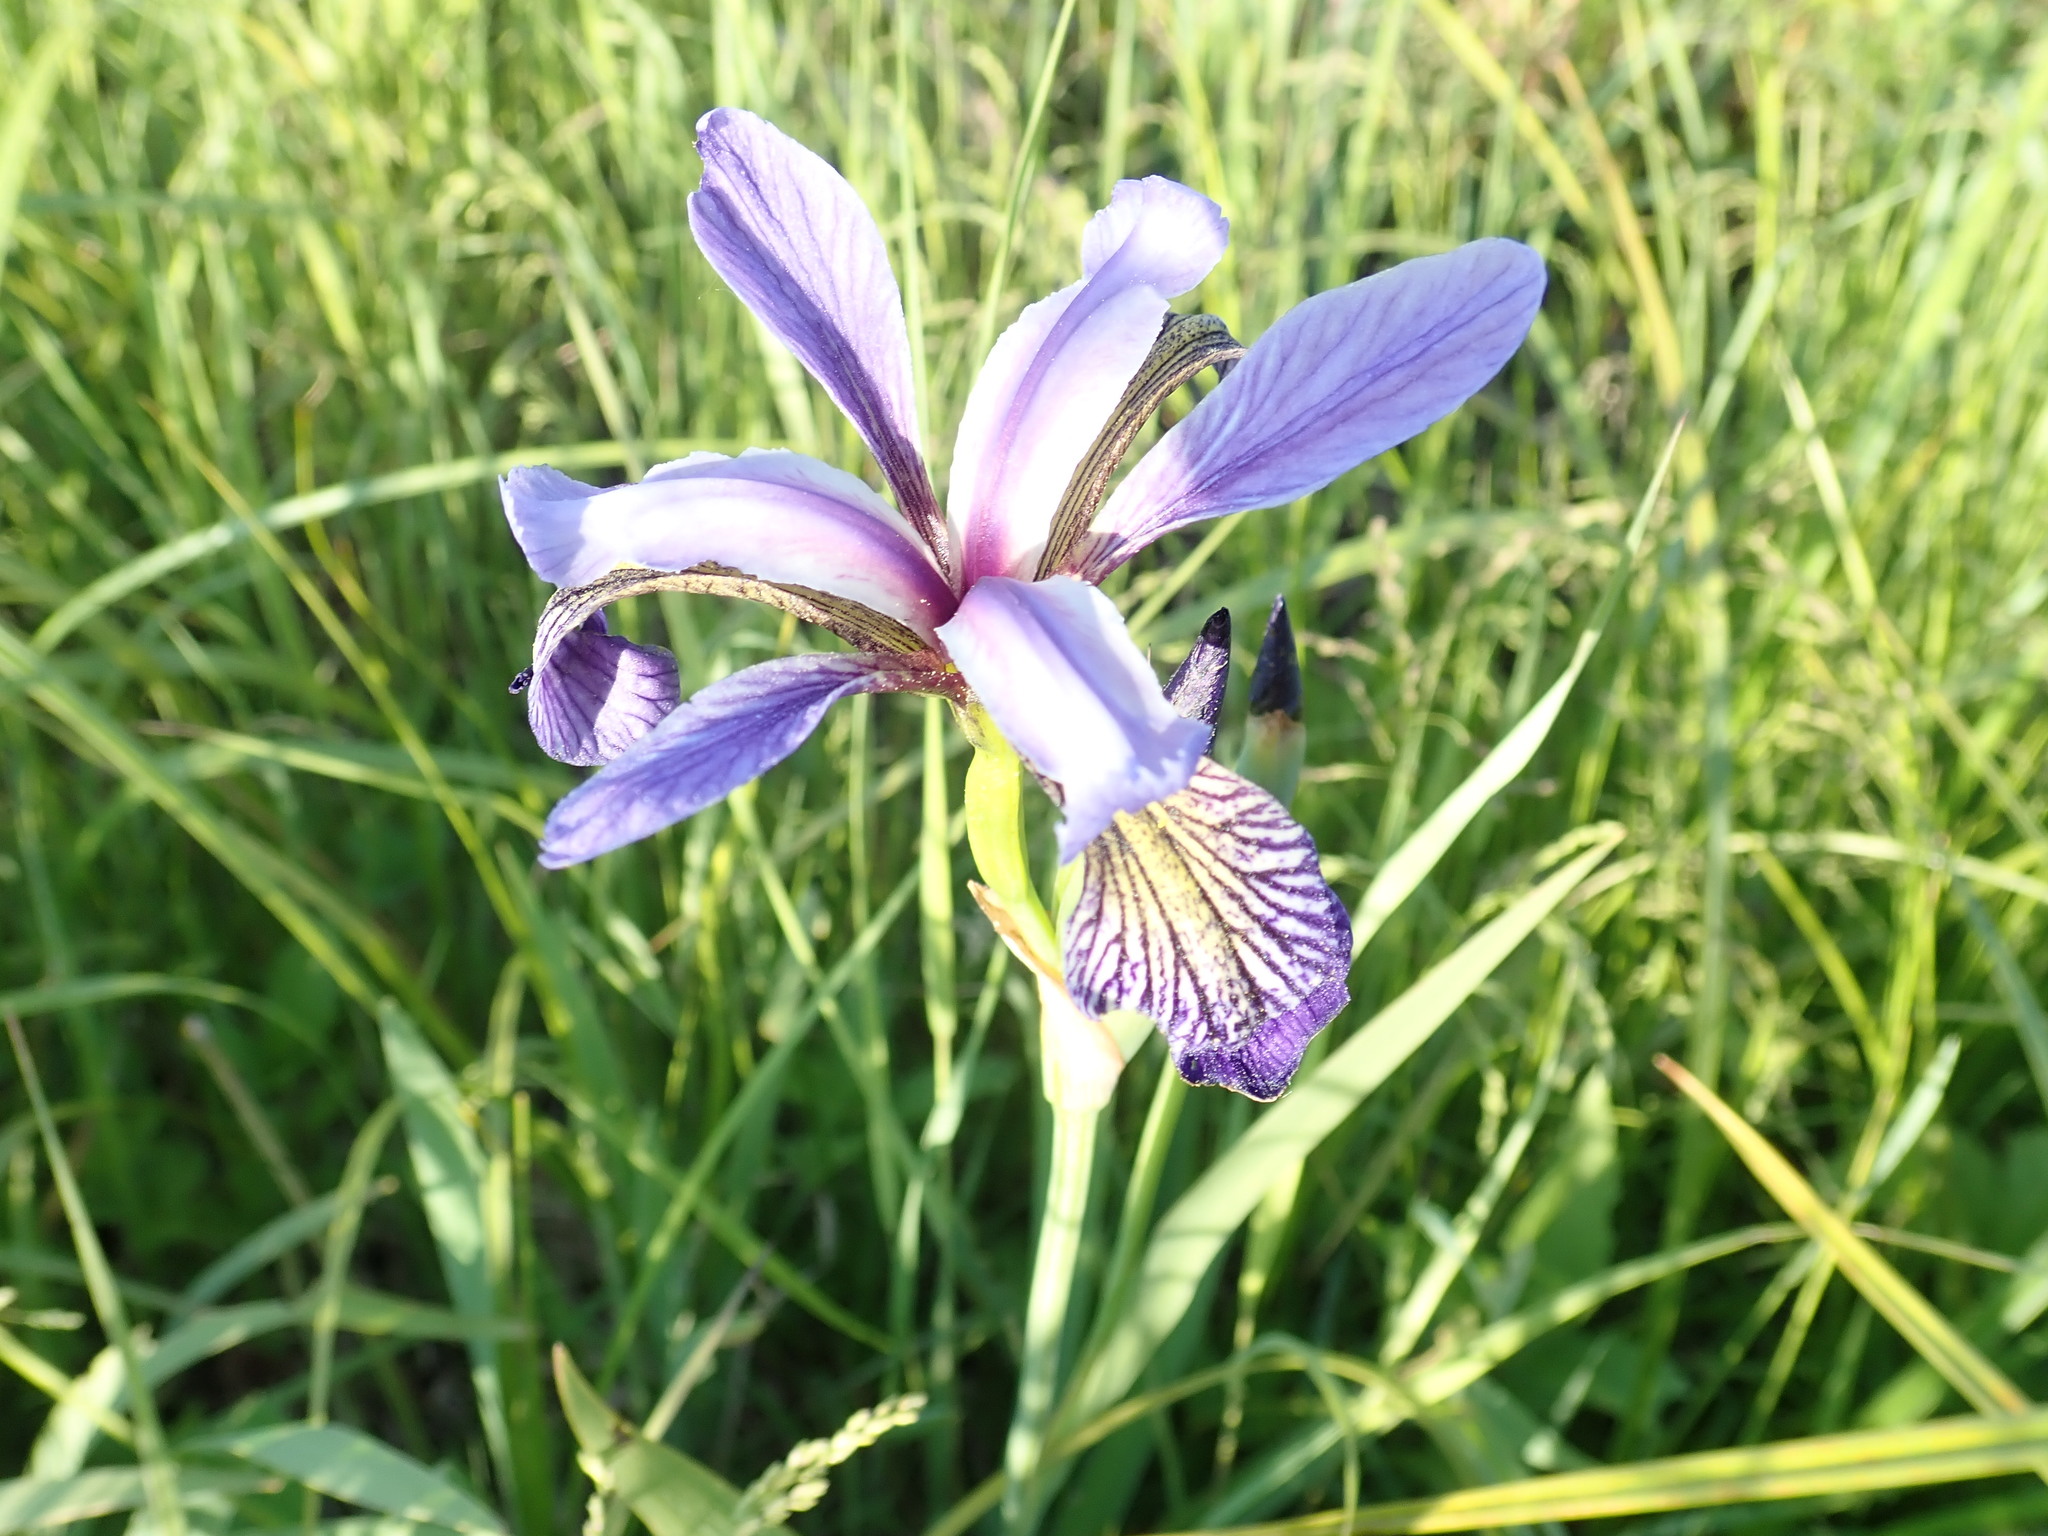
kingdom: Plantae
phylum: Tracheophyta
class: Liliopsida
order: Asparagales
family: Iridaceae
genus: Iris
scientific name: Iris versicolor
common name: Purple iris
